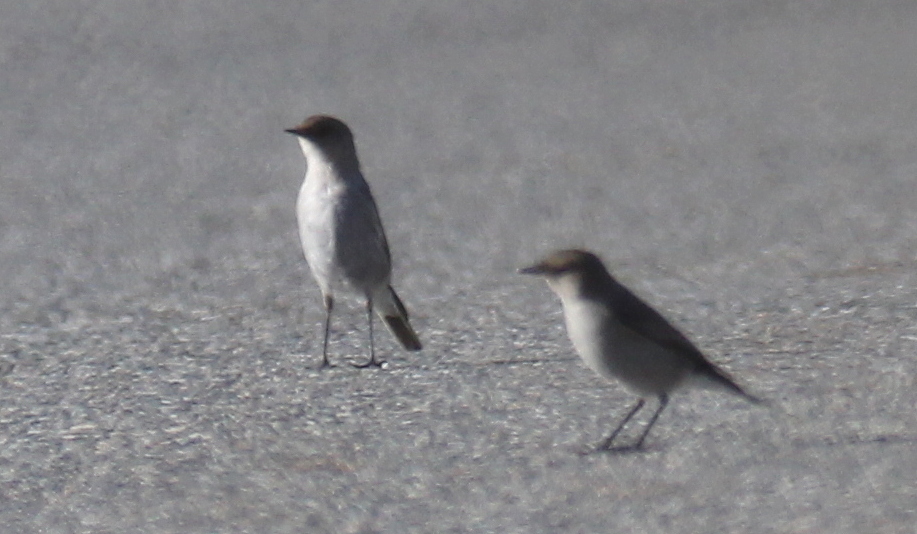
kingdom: Animalia
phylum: Chordata
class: Aves
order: Passeriformes
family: Tyrannidae
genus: Muscisaxicola
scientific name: Muscisaxicola maclovianus
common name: Dark-faced ground tyrant
